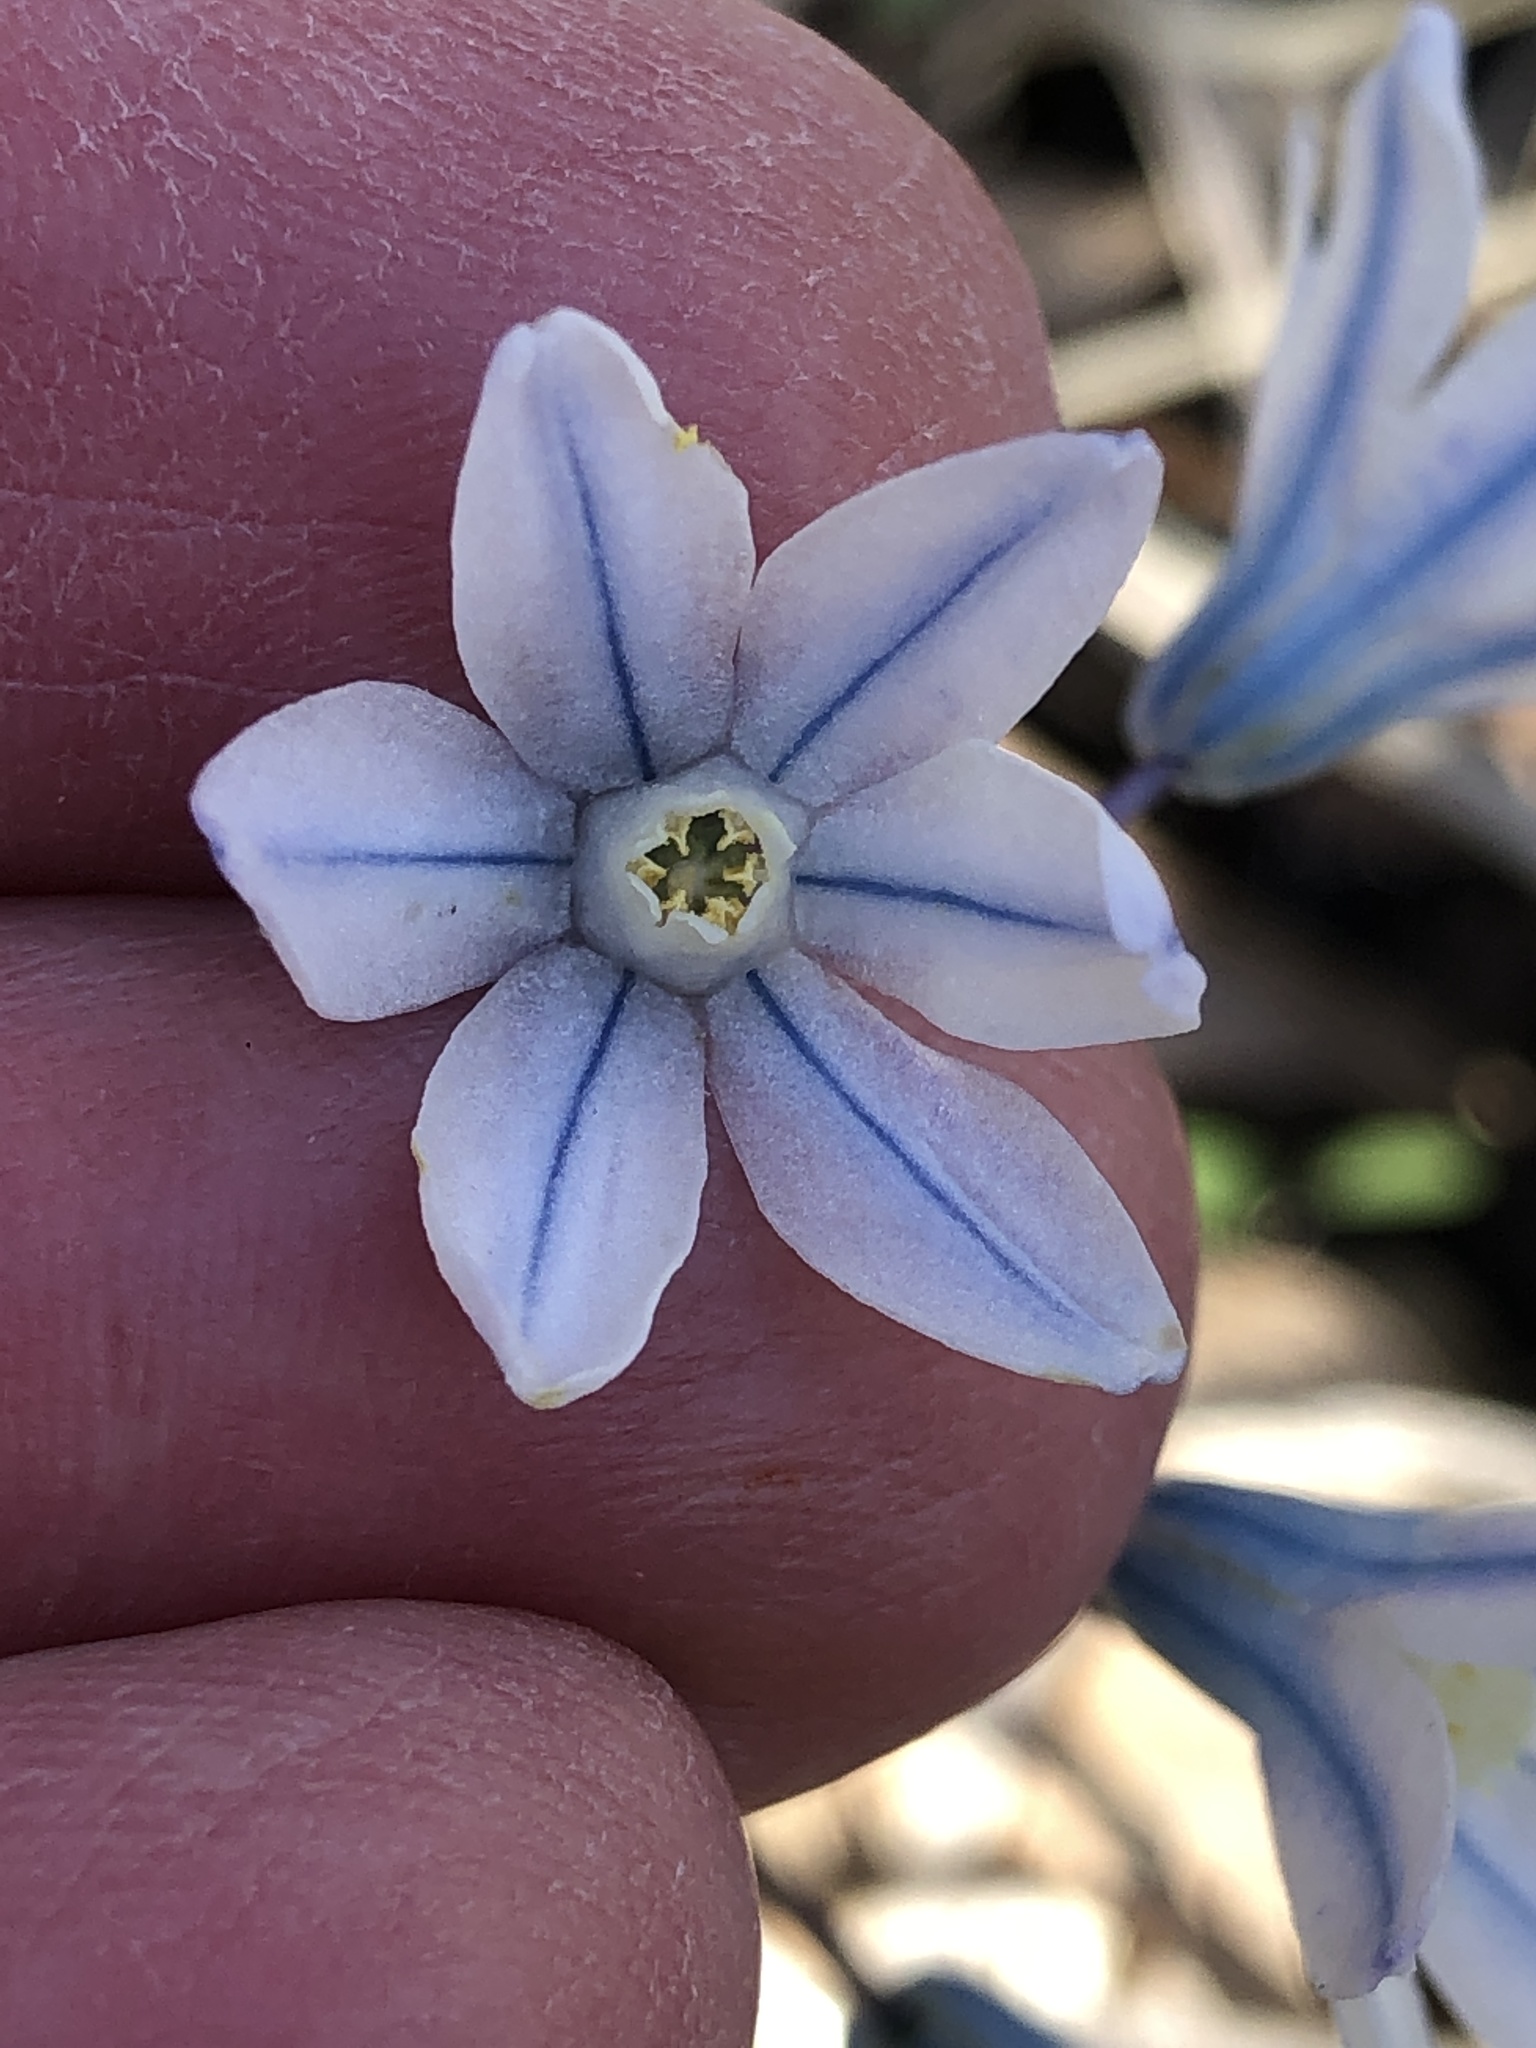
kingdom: Plantae
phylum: Tracheophyta
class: Liliopsida
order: Asparagales
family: Asparagaceae
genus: Puschkinia
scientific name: Puschkinia scilloides
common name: Striped squill
